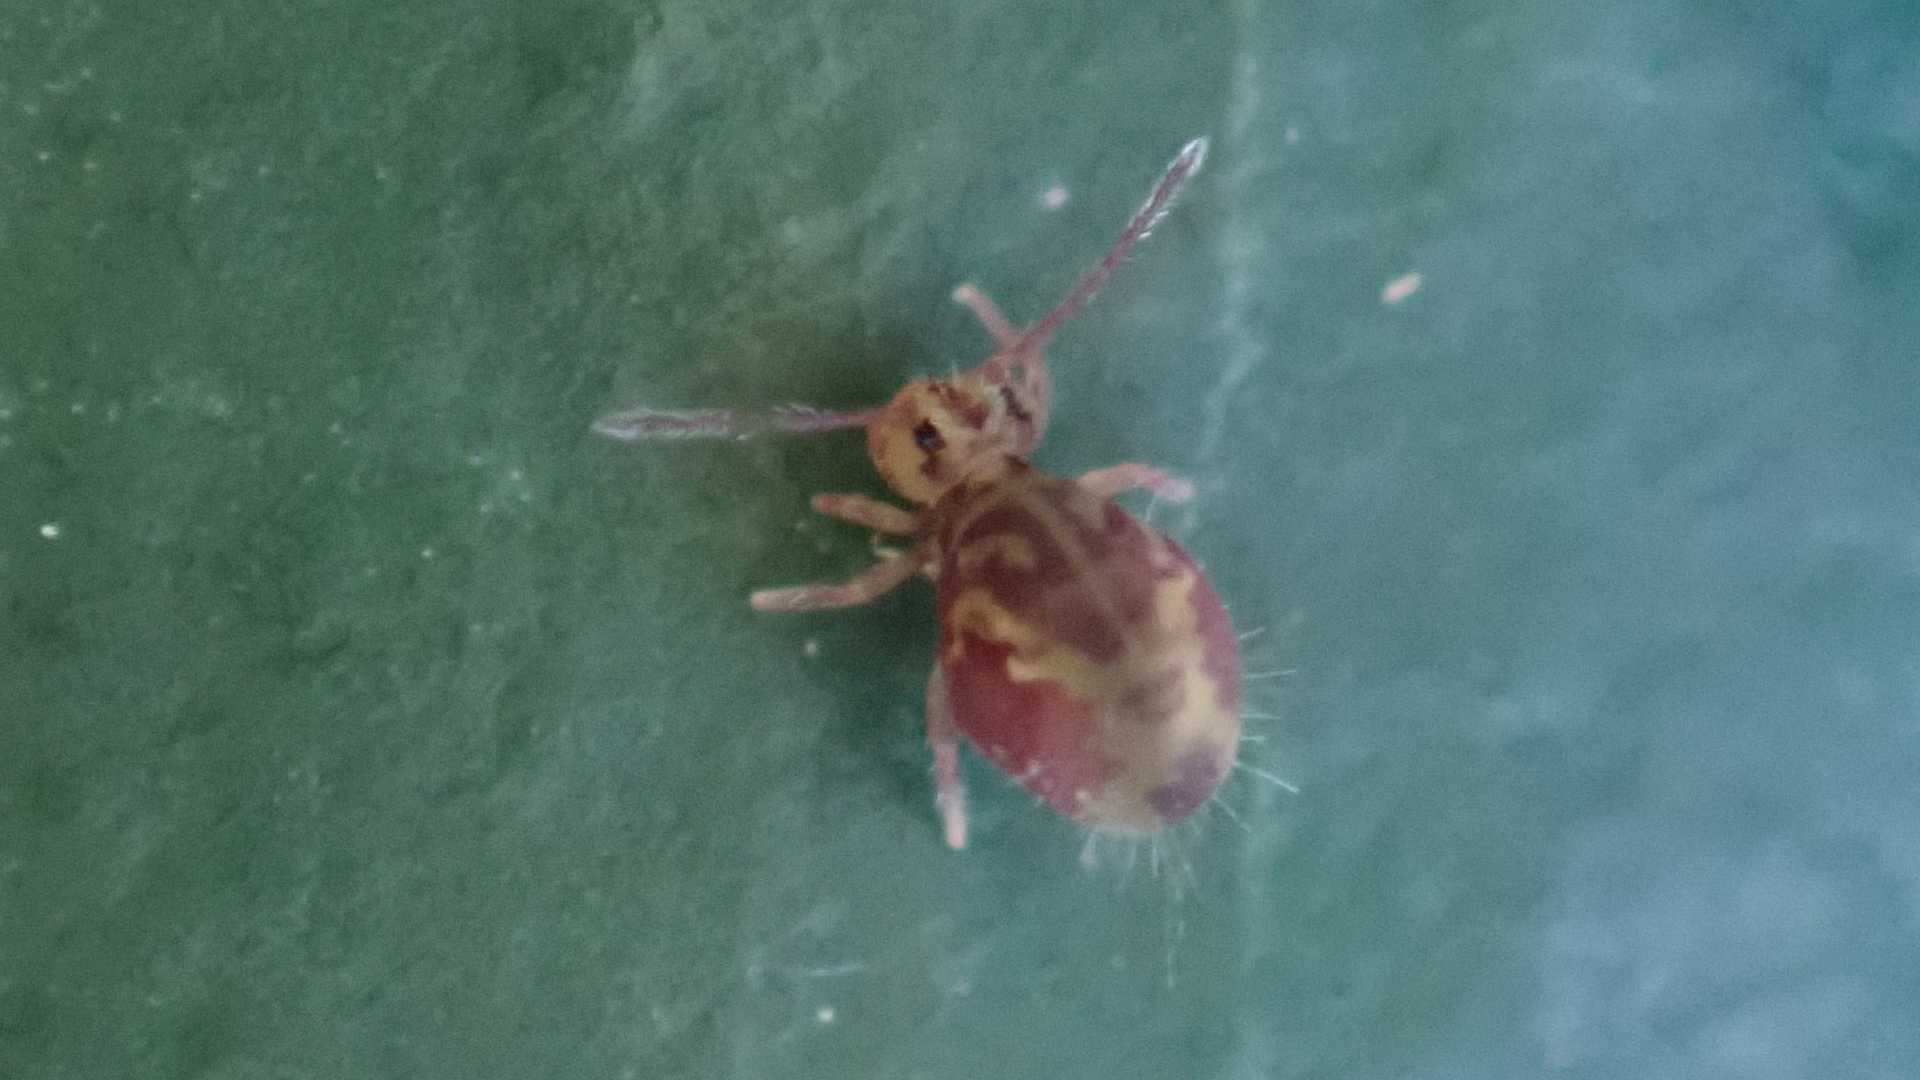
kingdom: Animalia
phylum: Arthropoda
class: Collembola
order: Symphypleona
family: Dicyrtomidae
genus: Dicyrtomina
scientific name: Dicyrtomina ornata
